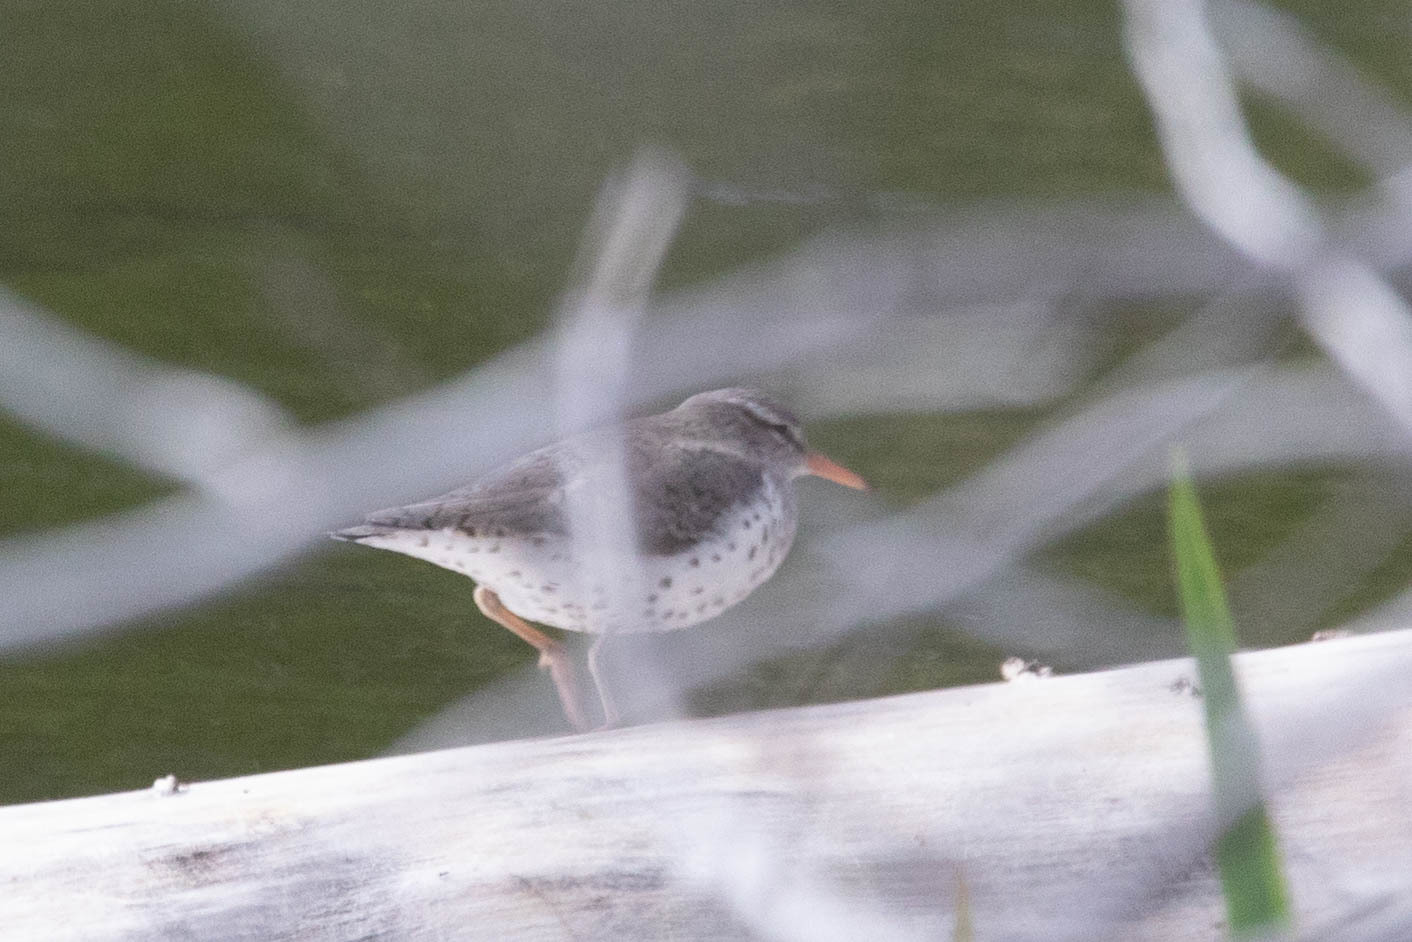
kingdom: Animalia
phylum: Chordata
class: Aves
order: Charadriiformes
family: Scolopacidae
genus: Actitis
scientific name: Actitis macularius
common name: Spotted sandpiper
